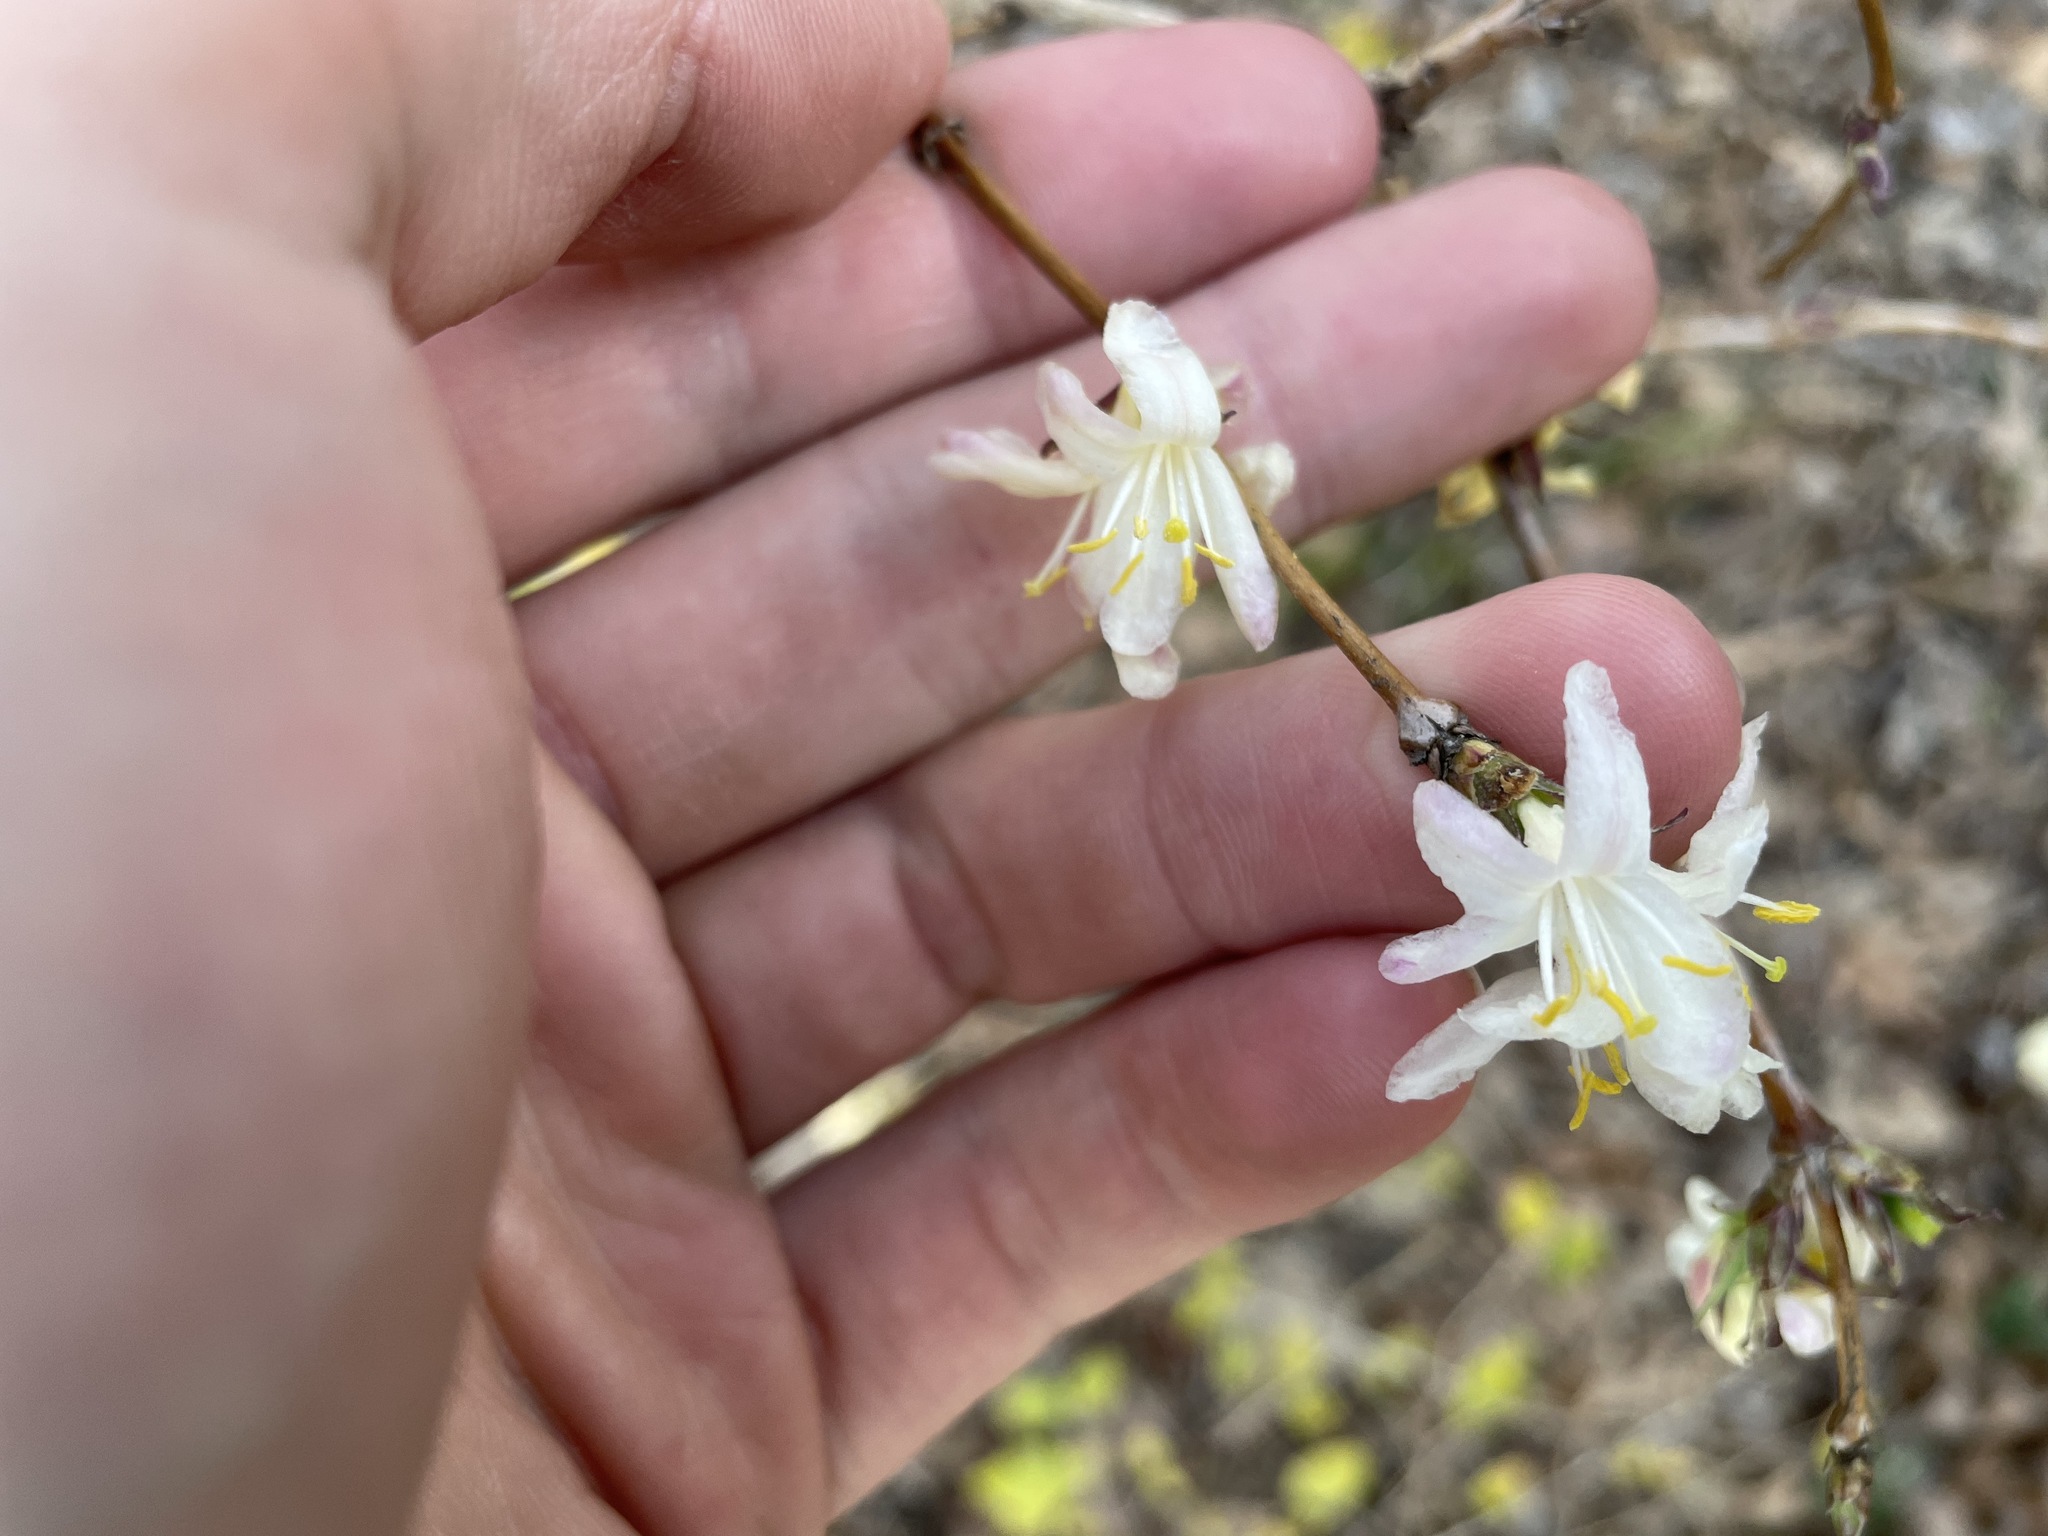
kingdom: Plantae
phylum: Tracheophyta
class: Magnoliopsida
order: Dipsacales
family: Caprifoliaceae
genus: Lonicera
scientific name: Lonicera fragrantissima
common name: Fragrant honeysuckle
